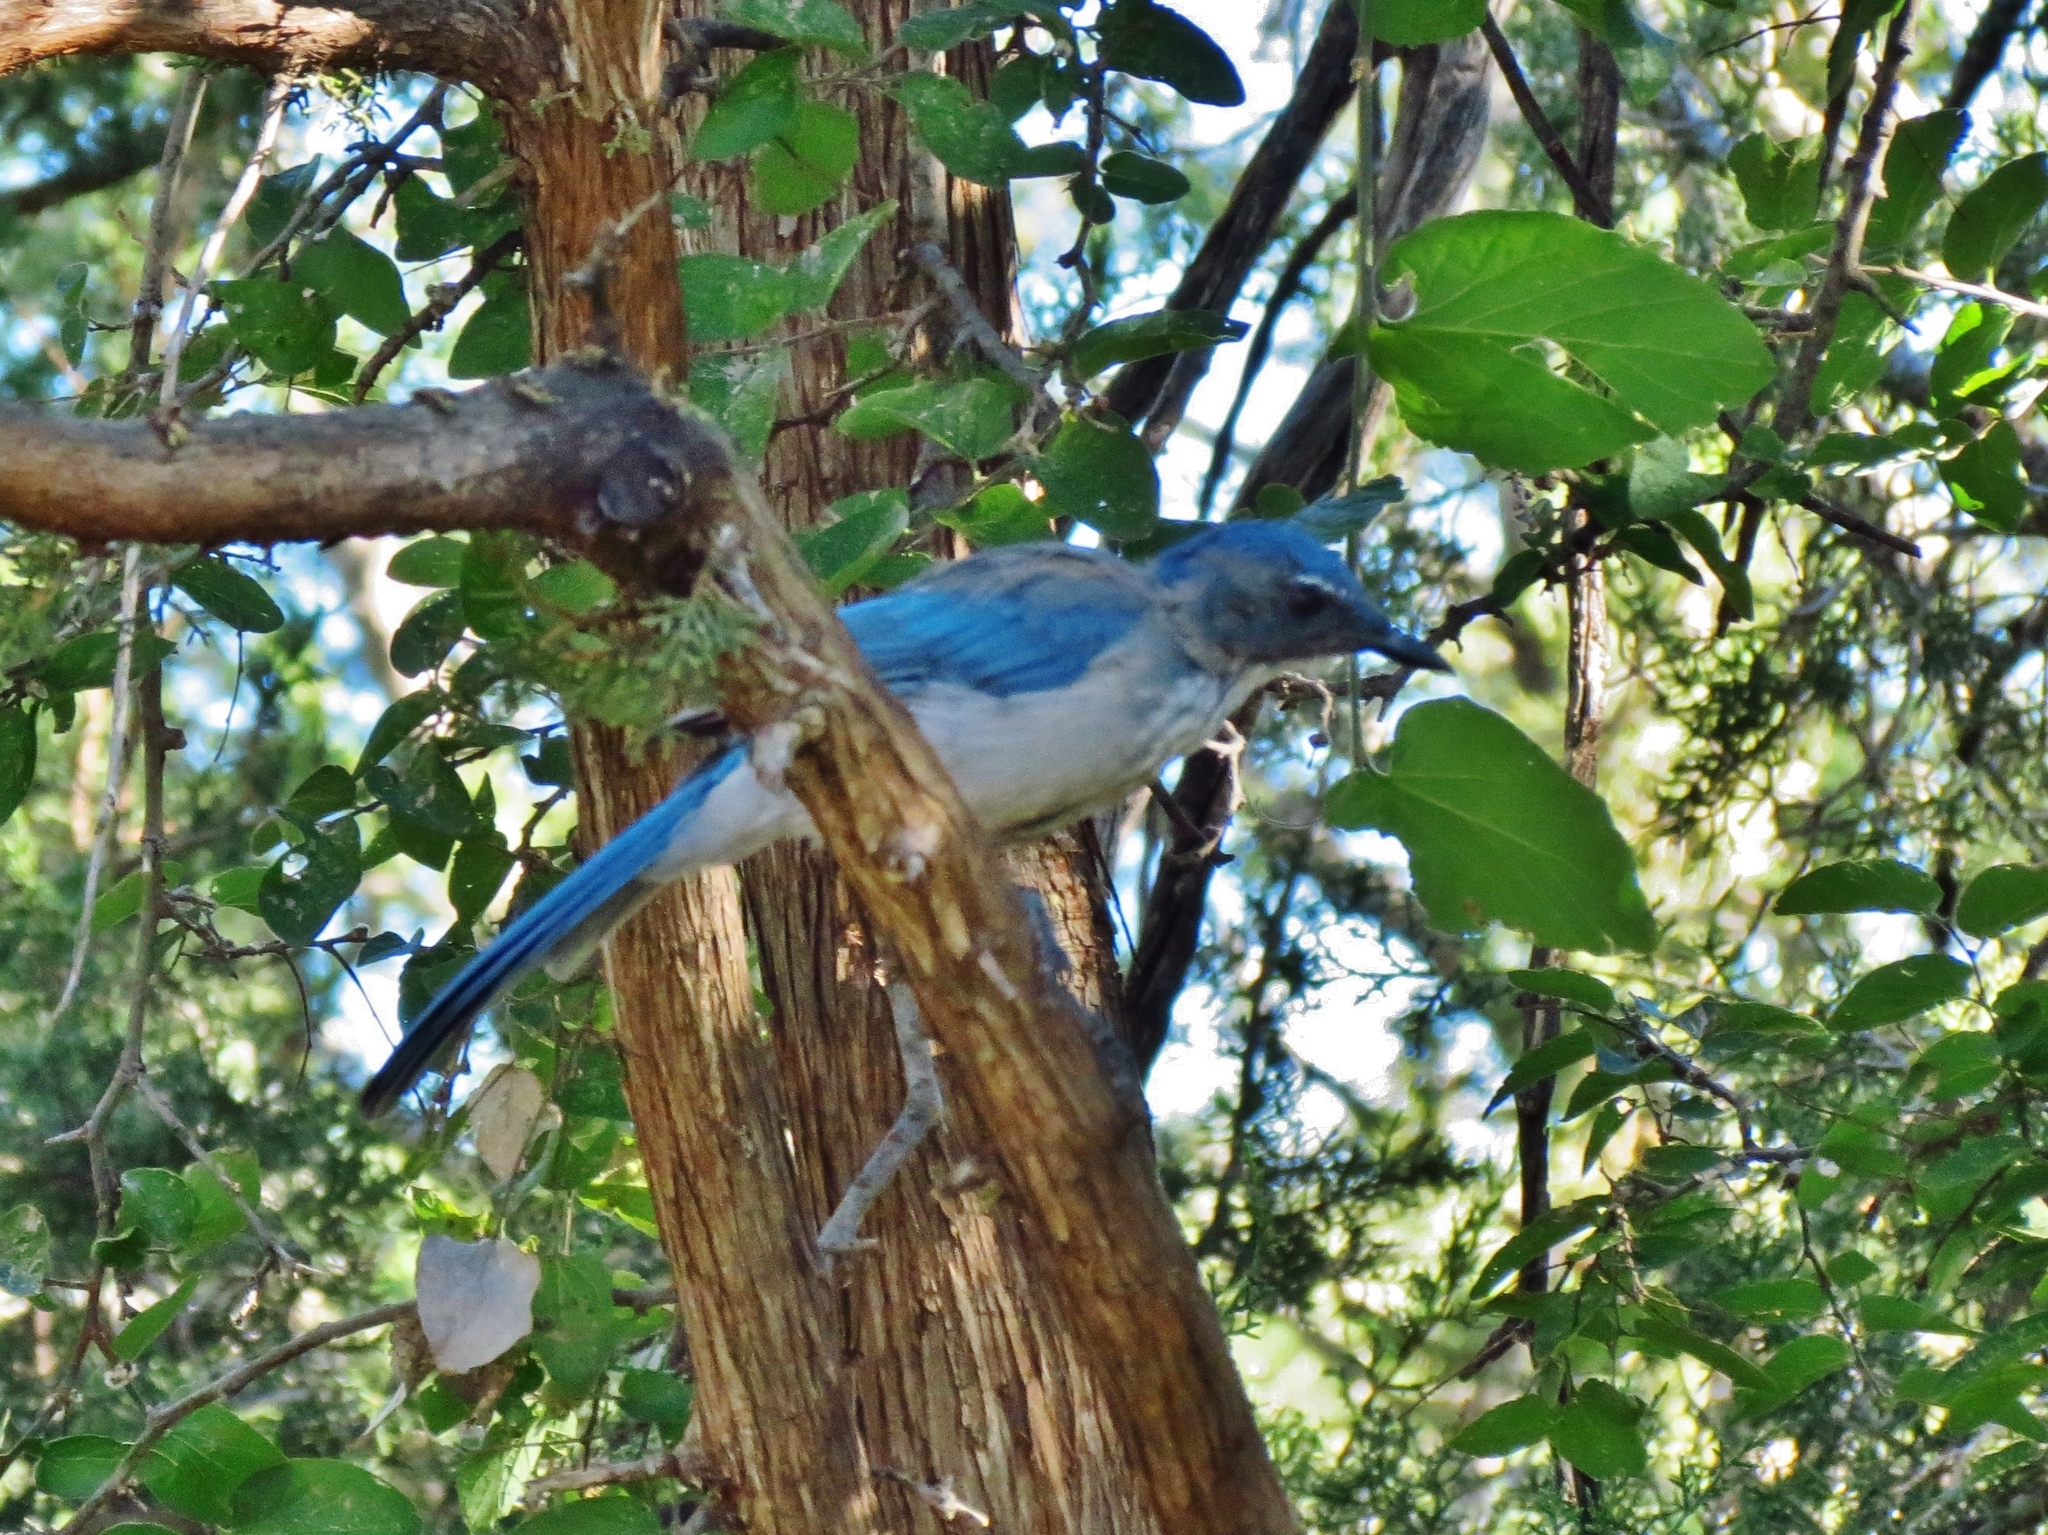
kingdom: Animalia
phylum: Chordata
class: Aves
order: Passeriformes
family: Corvidae
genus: Aphelocoma
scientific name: Aphelocoma woodhouseii
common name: Woodhouse's scrub-jay
